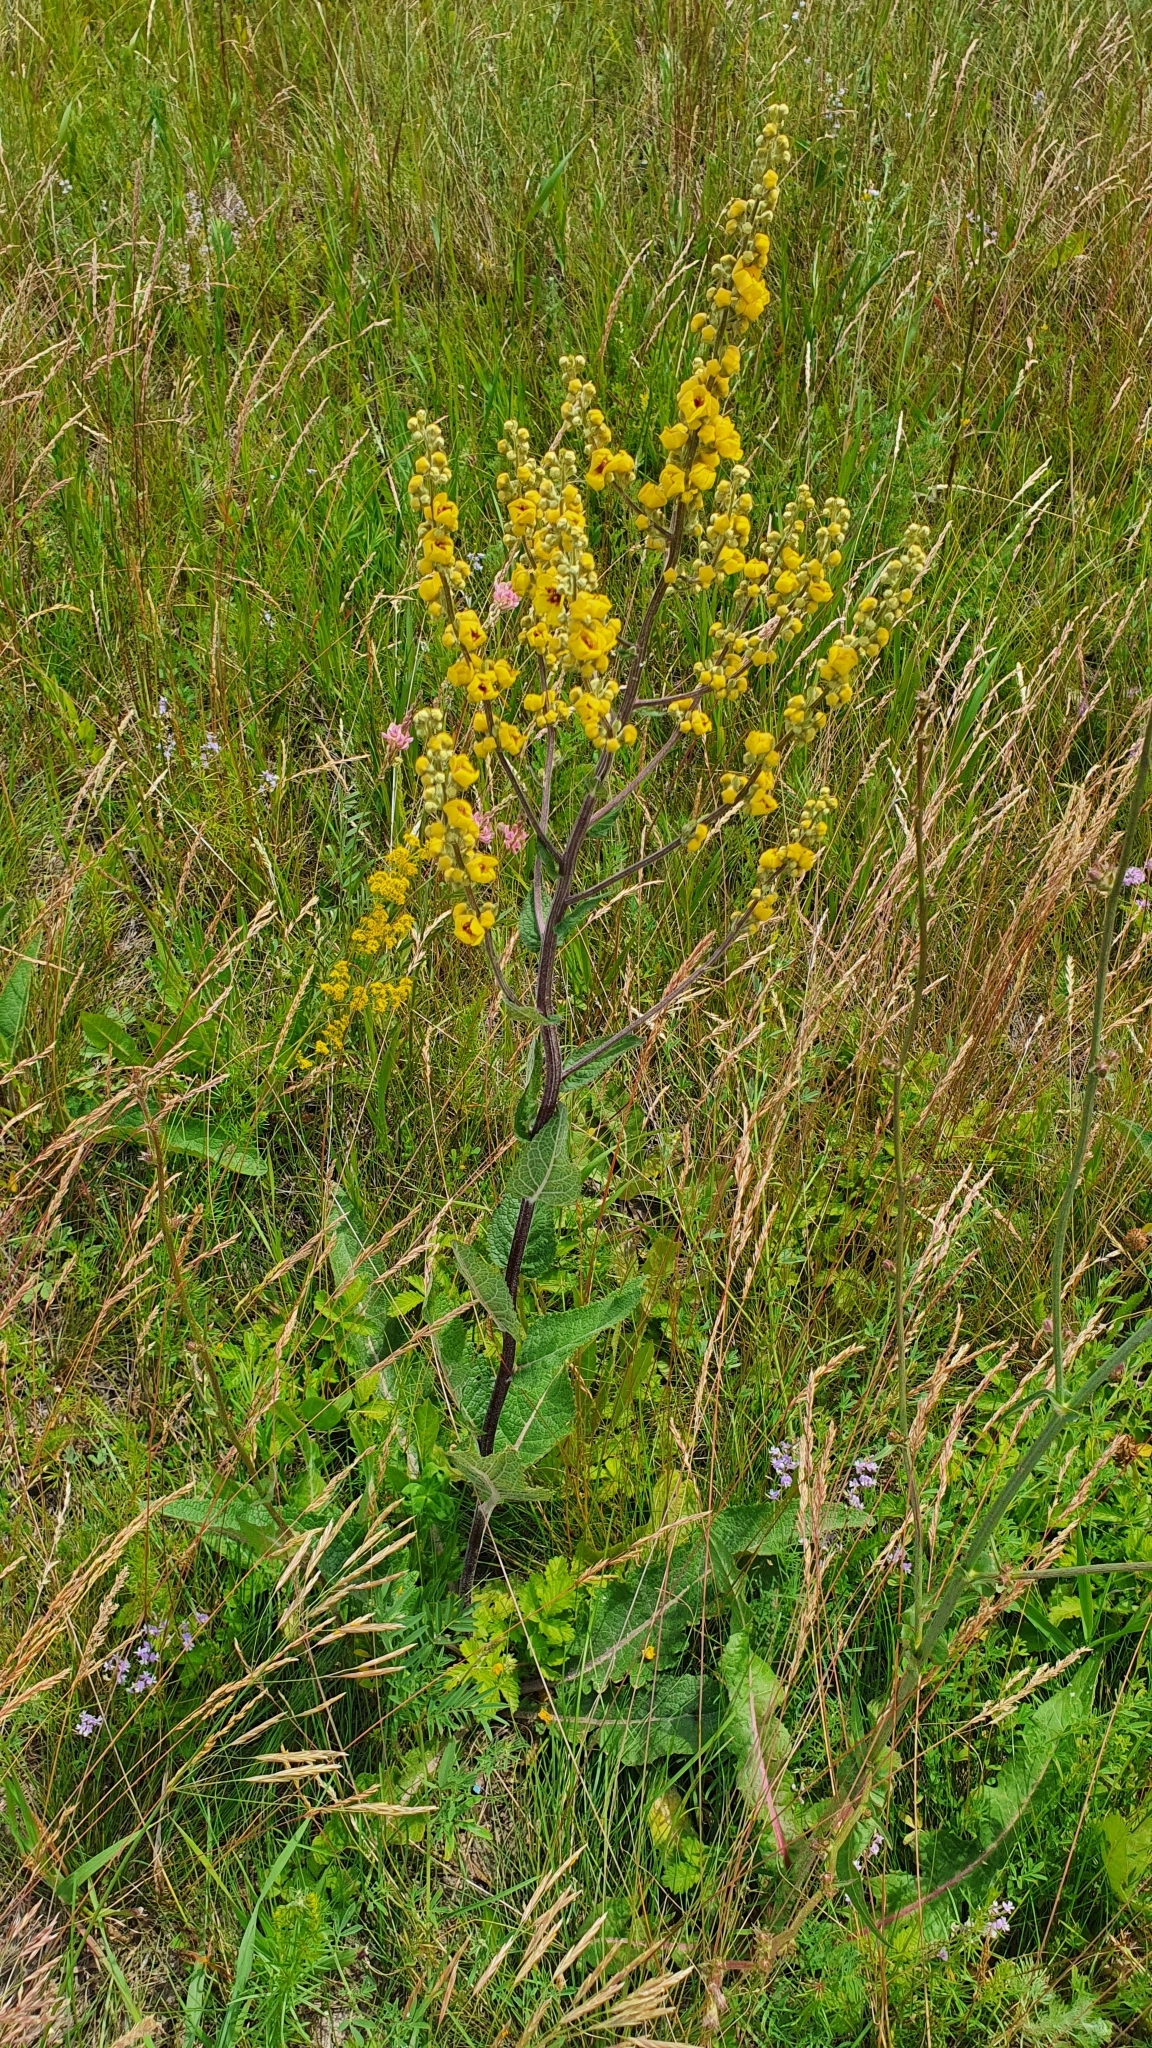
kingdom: Plantae
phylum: Tracheophyta
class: Magnoliopsida
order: Lamiales
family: Scrophulariaceae
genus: Verbascum
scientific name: Verbascum chaixii
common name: Nettle-leaved mullein
